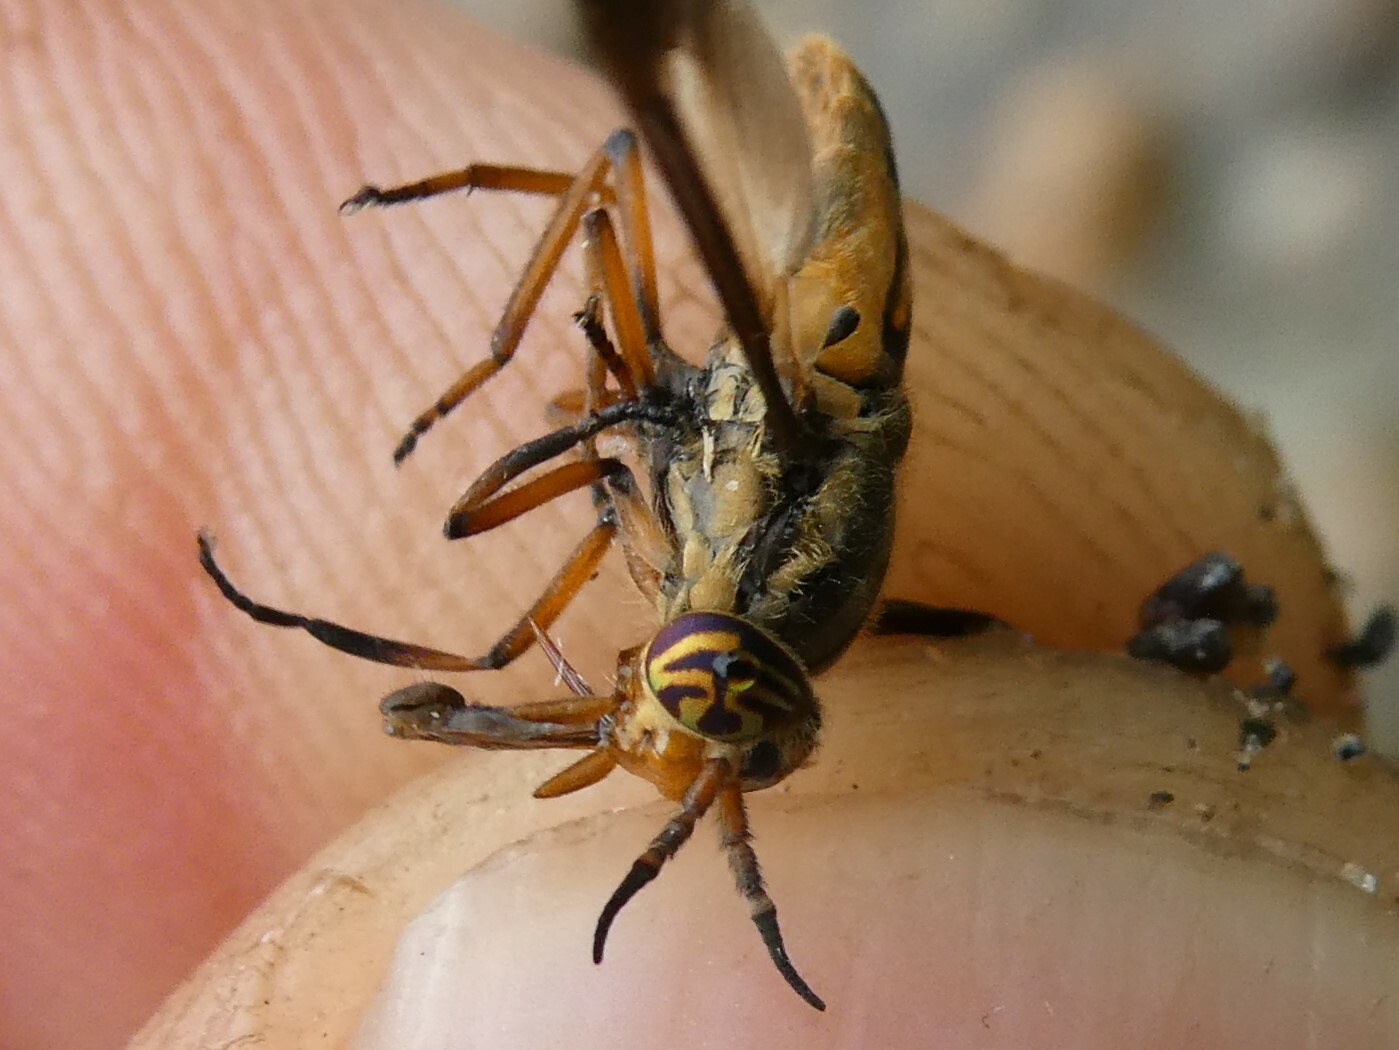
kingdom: Animalia
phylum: Arthropoda
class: Insecta
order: Diptera
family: Tabanidae
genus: Chrysops
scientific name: Chrysops indus
